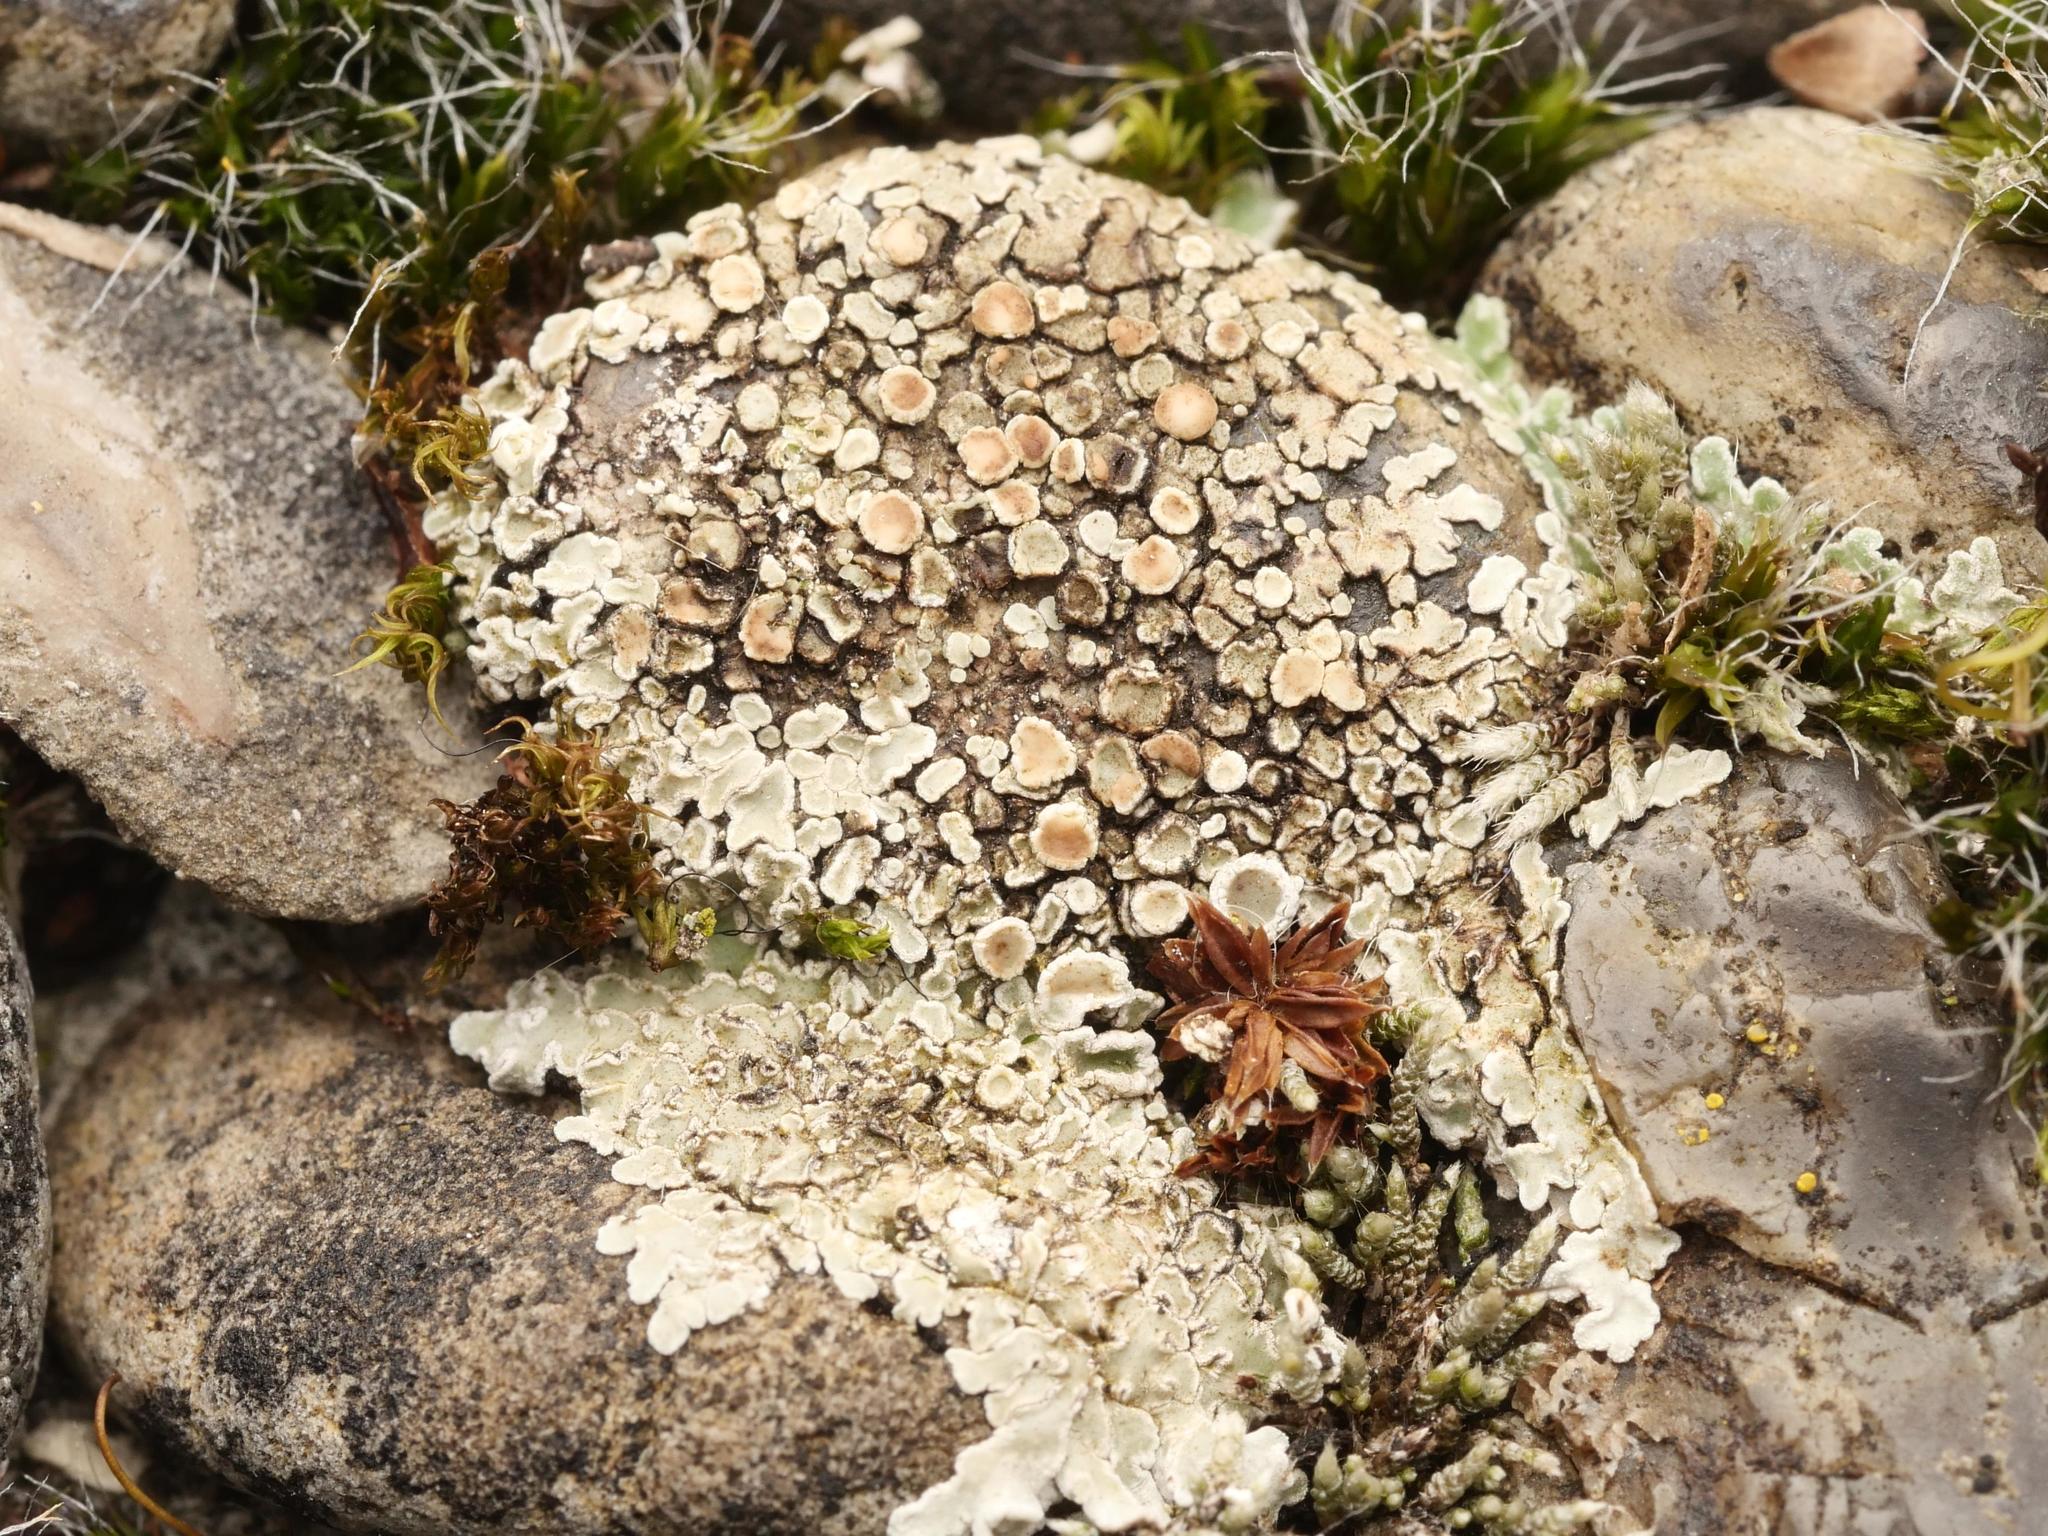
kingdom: Fungi
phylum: Ascomycota
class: Lecanoromycetes
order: Lecanorales
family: Lecanoraceae
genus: Protoparmeliopsis
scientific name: Protoparmeliopsis muralis
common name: Stonewall rim lichen
